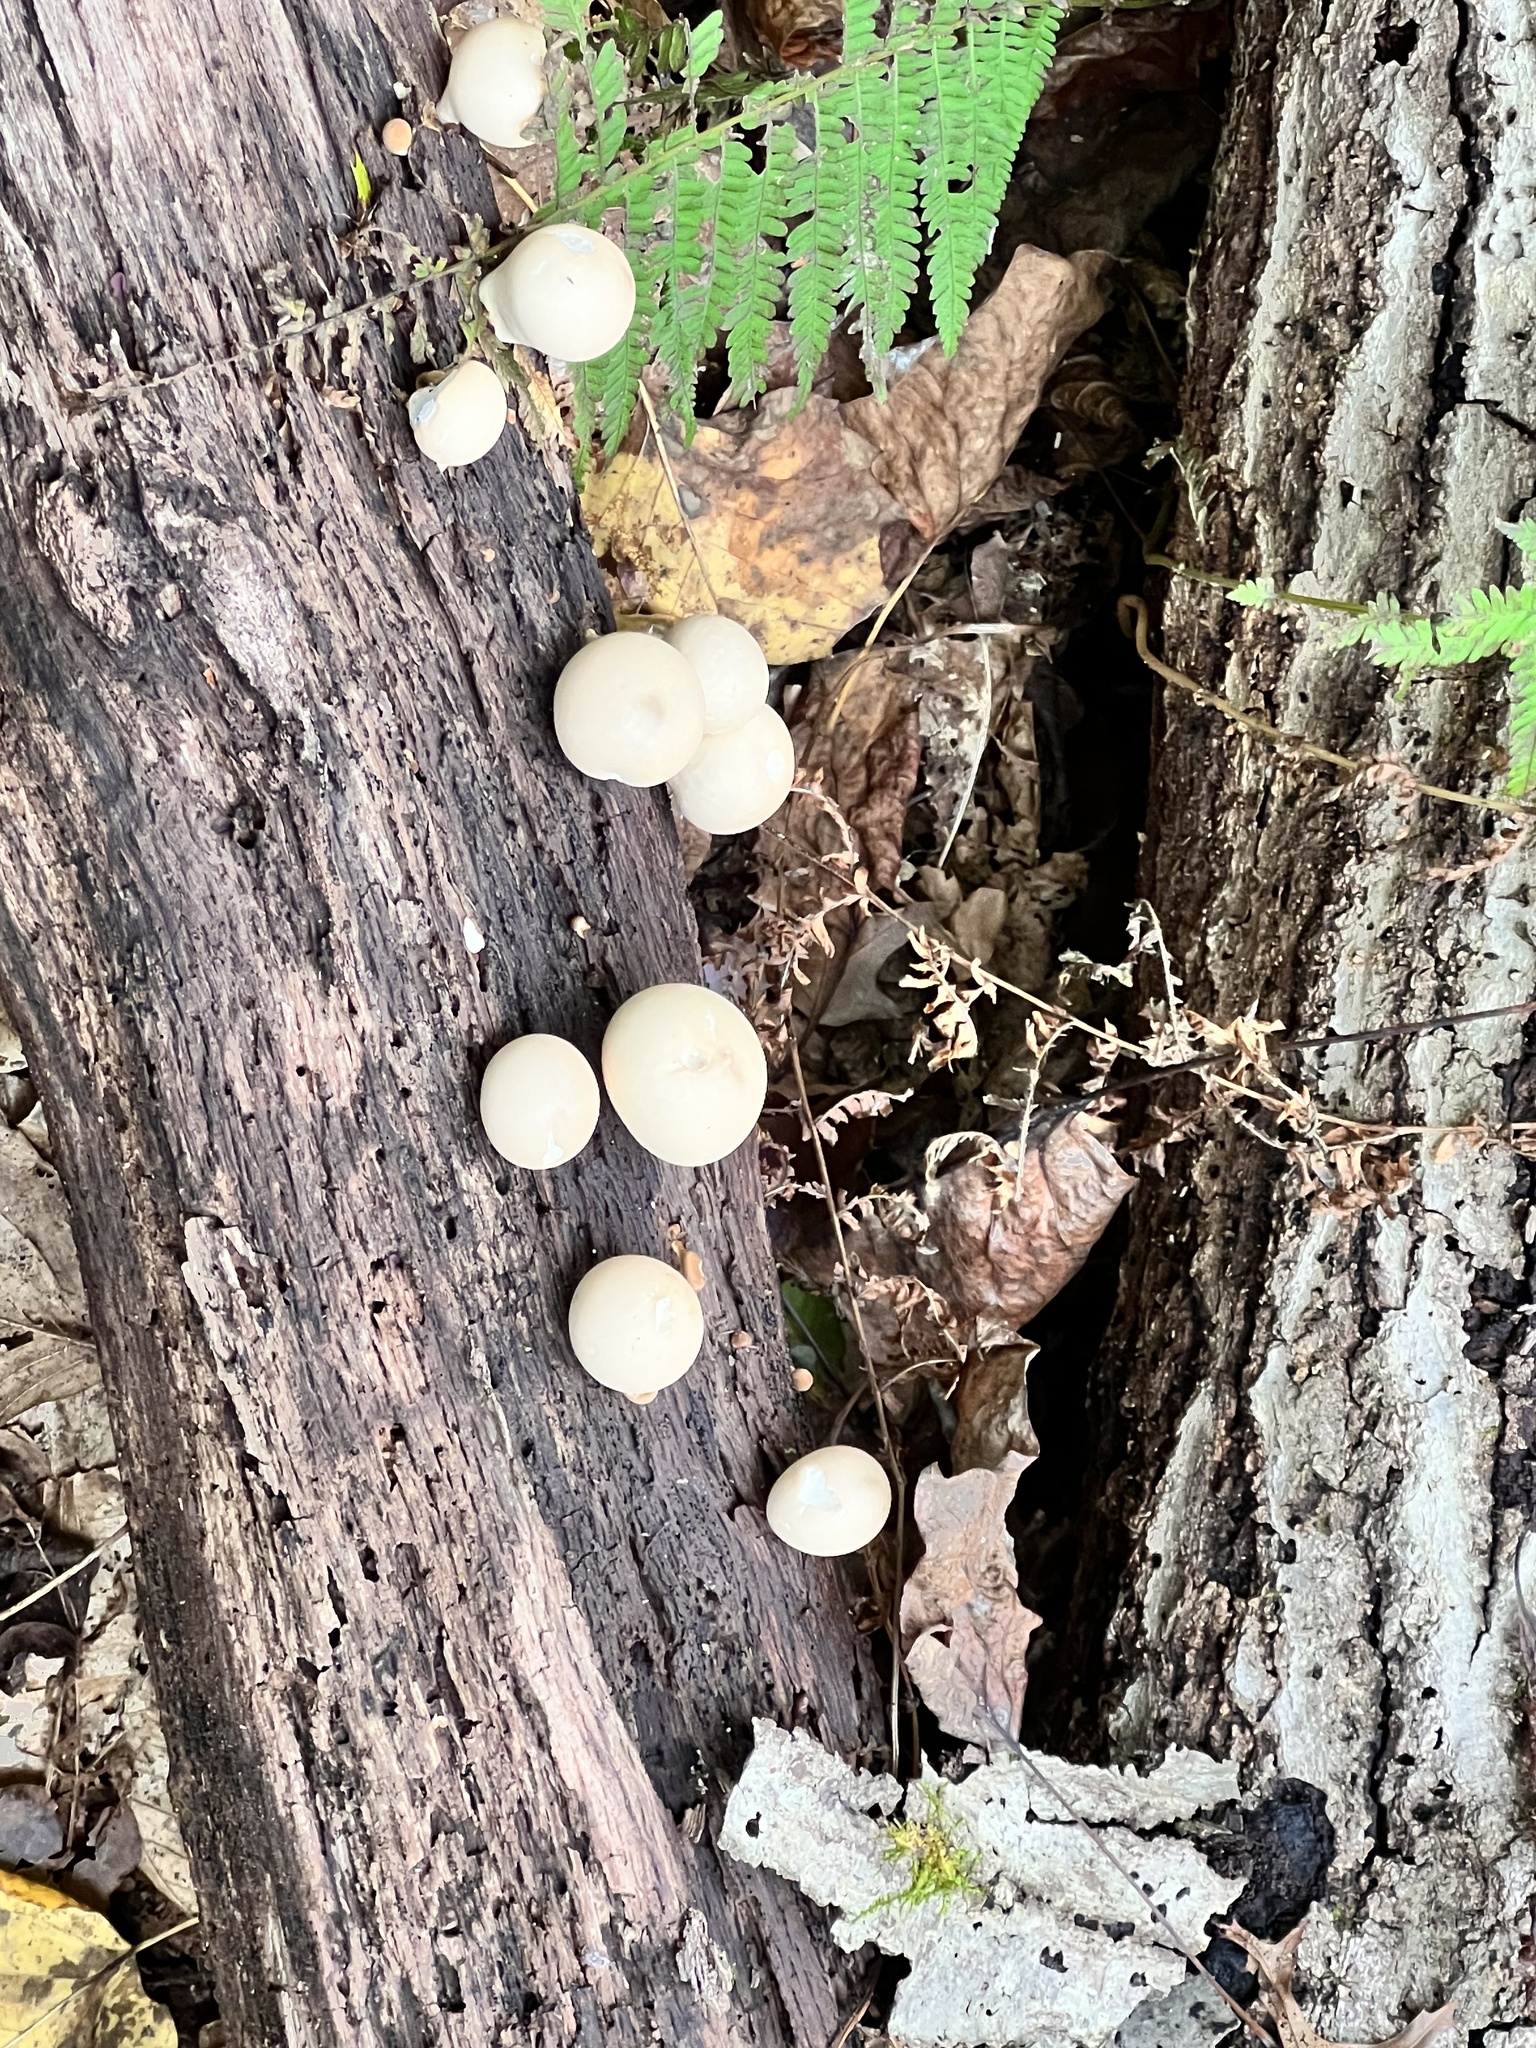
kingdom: Fungi
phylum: Basidiomycota
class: Agaricomycetes
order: Agaricales
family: Lycoperdaceae
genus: Apioperdon
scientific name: Apioperdon pyriforme
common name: Pear-shaped puffball
